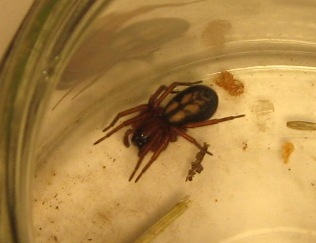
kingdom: Animalia
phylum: Arthropoda
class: Arachnida
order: Araneae
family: Amaurobiidae
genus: Callobius
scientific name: Callobius severus
